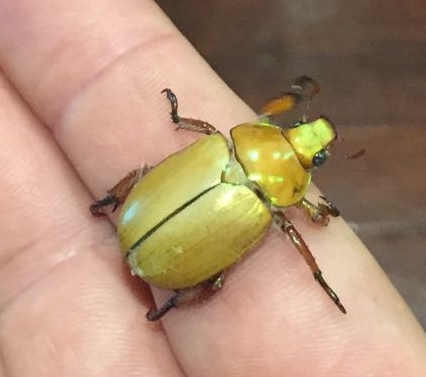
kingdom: Animalia
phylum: Arthropoda
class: Insecta
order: Coleoptera
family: Scarabaeidae
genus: Anoplognathus
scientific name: Anoplognathus montanus
